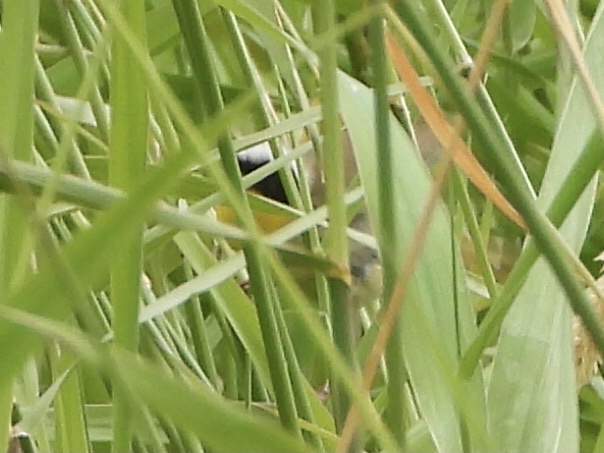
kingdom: Animalia
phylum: Chordata
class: Aves
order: Passeriformes
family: Parulidae
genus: Geothlypis
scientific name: Geothlypis trichas
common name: Common yellowthroat
